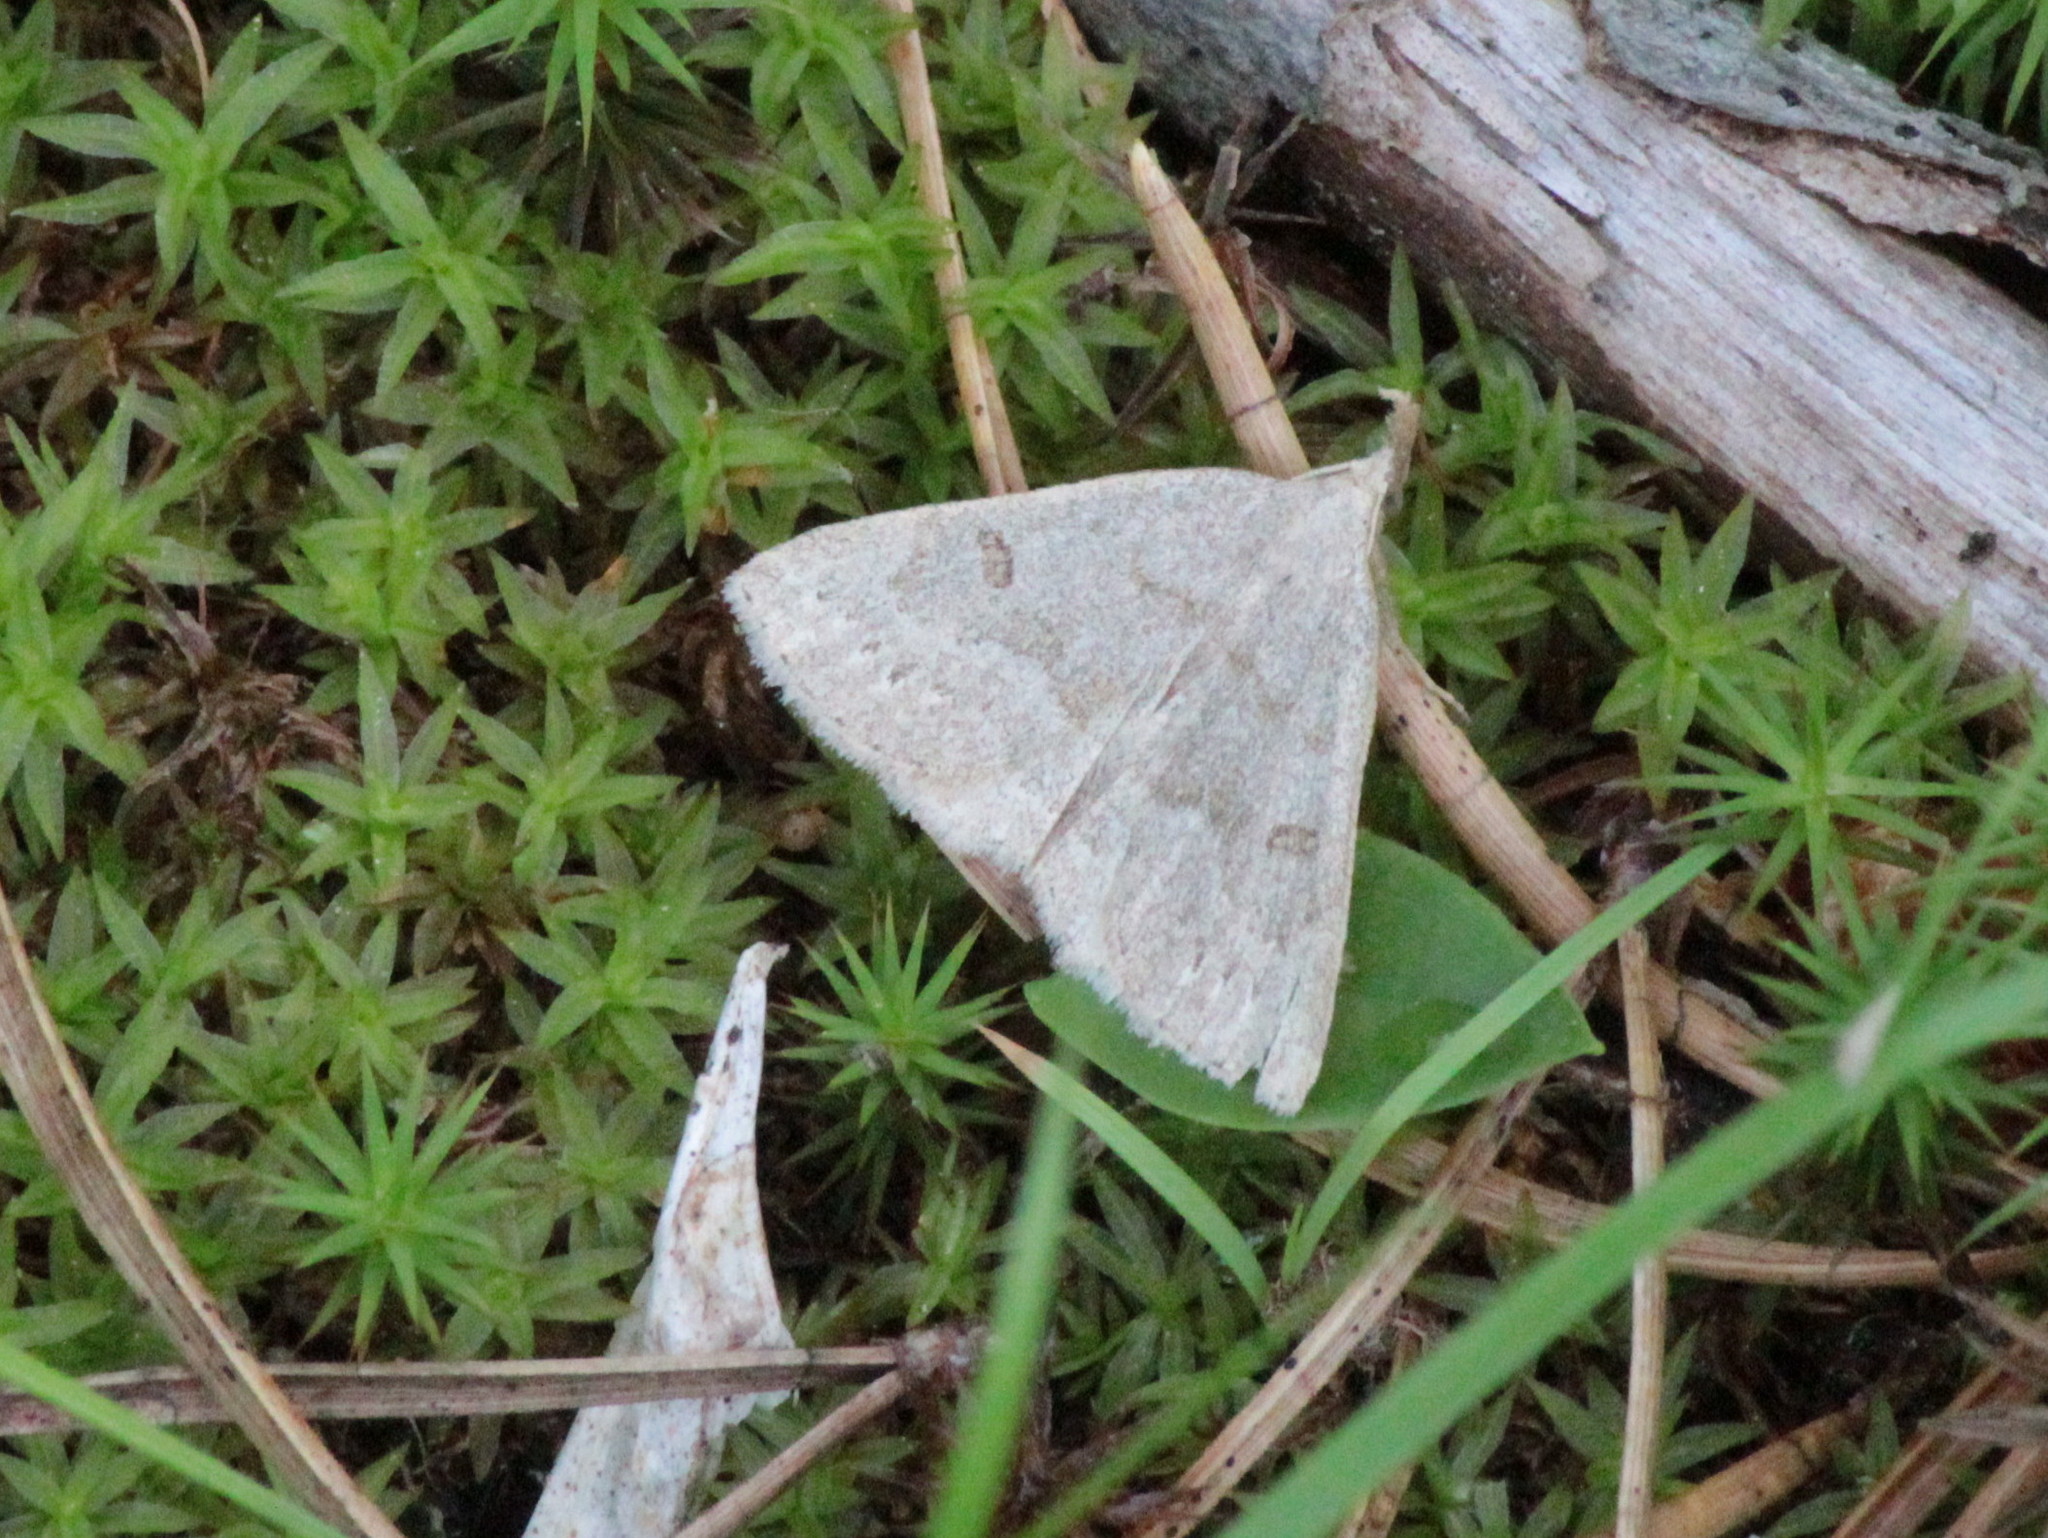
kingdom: Animalia
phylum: Arthropoda
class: Insecta
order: Lepidoptera
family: Erebidae
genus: Macrochilo
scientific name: Macrochilo morbidalis
